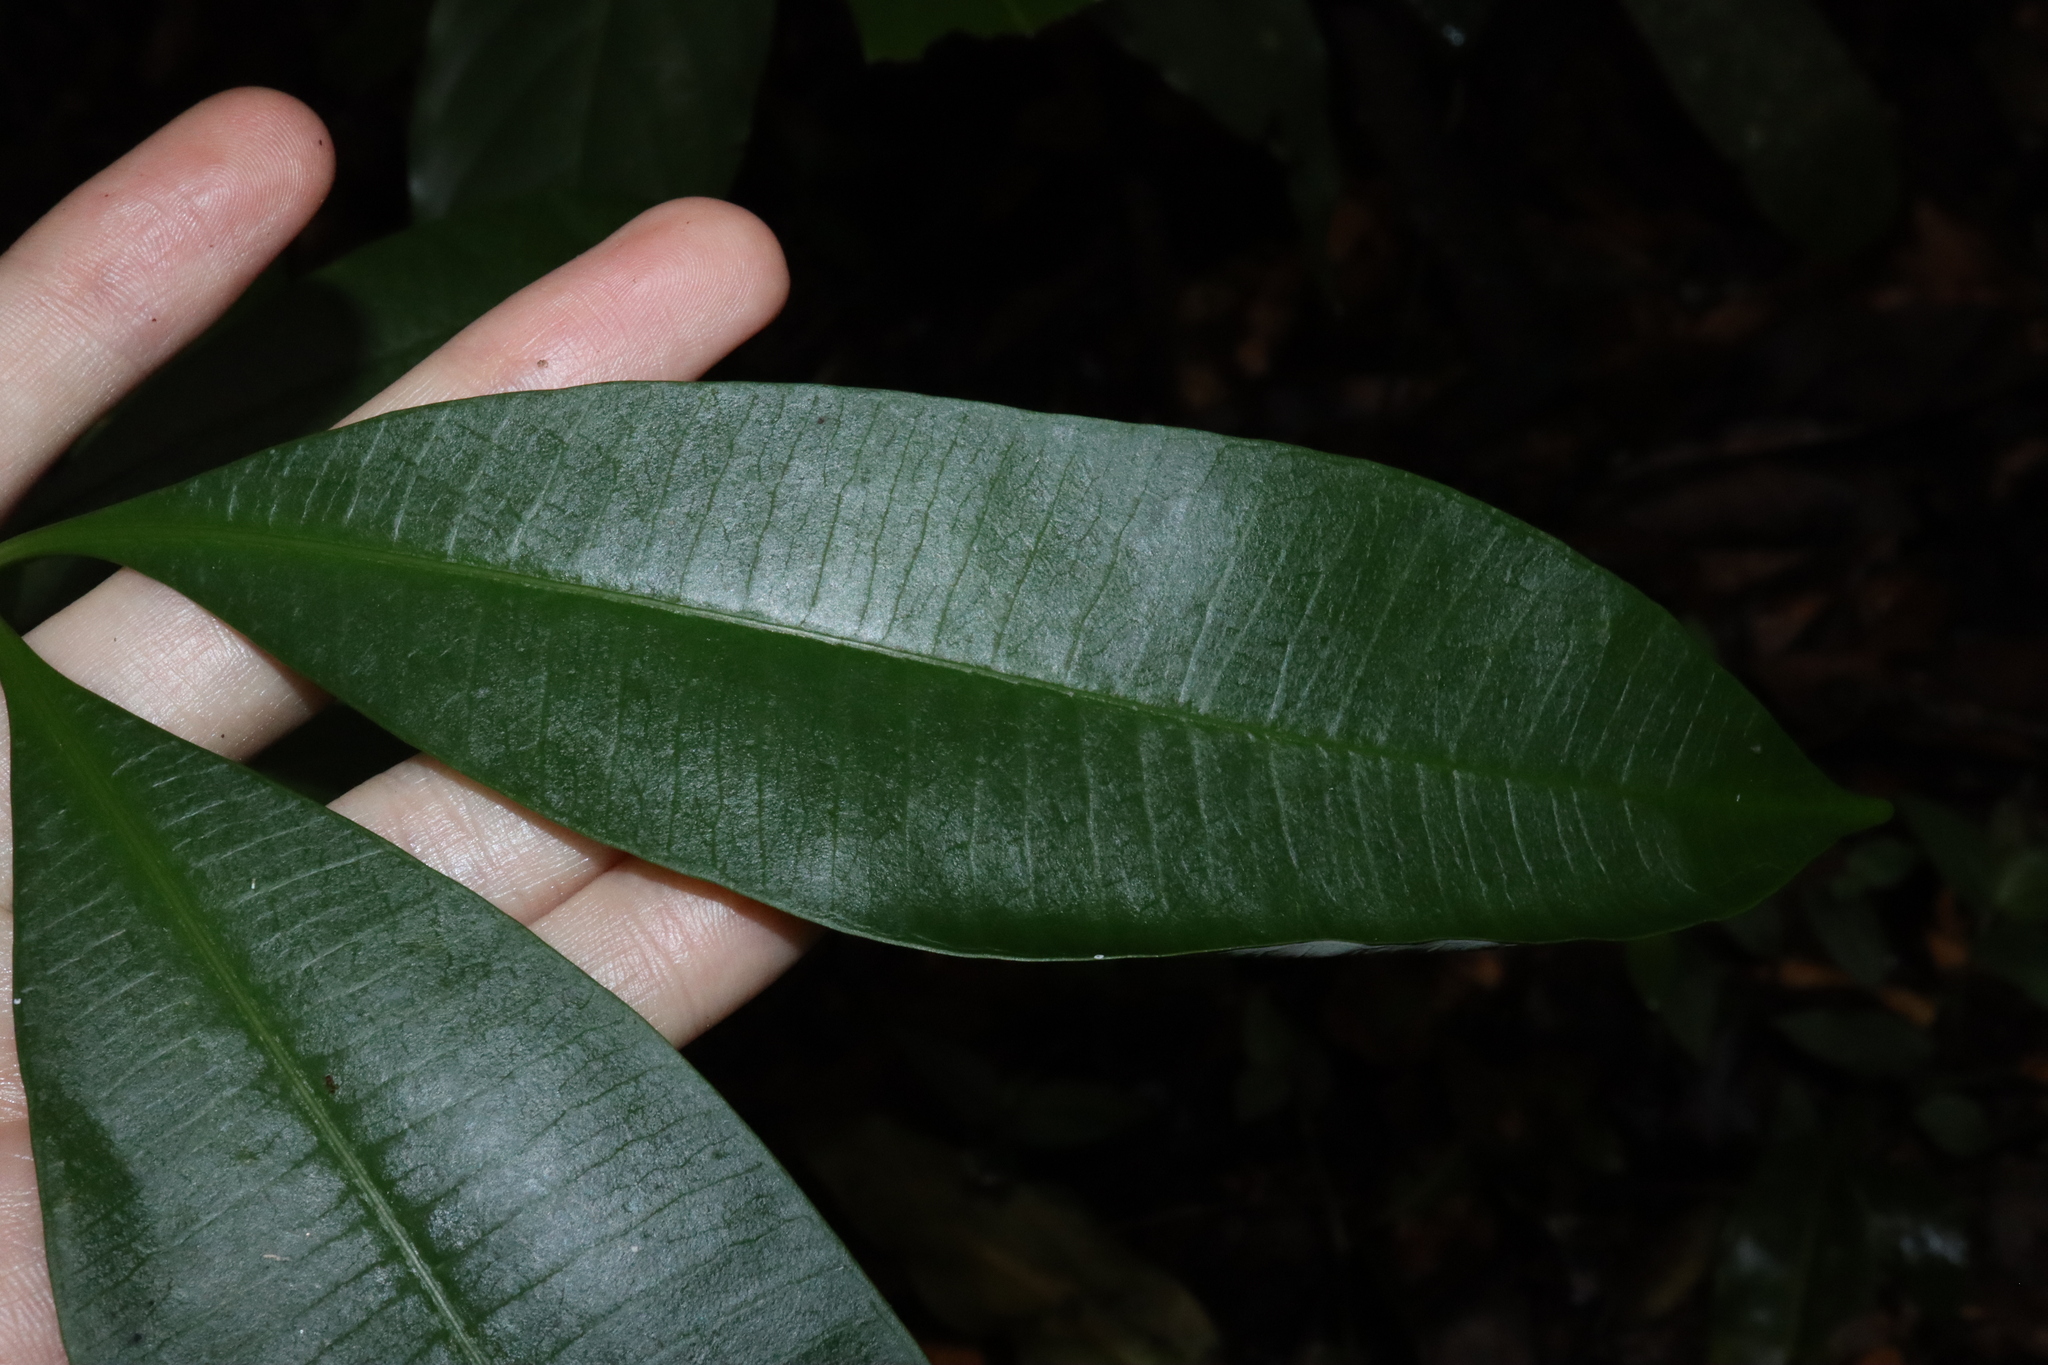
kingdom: Plantae
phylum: Tracheophyta
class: Magnoliopsida
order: Gentianales
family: Apocynaceae
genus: Alstonia
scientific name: Alstonia scholaris
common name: White cheesewood
